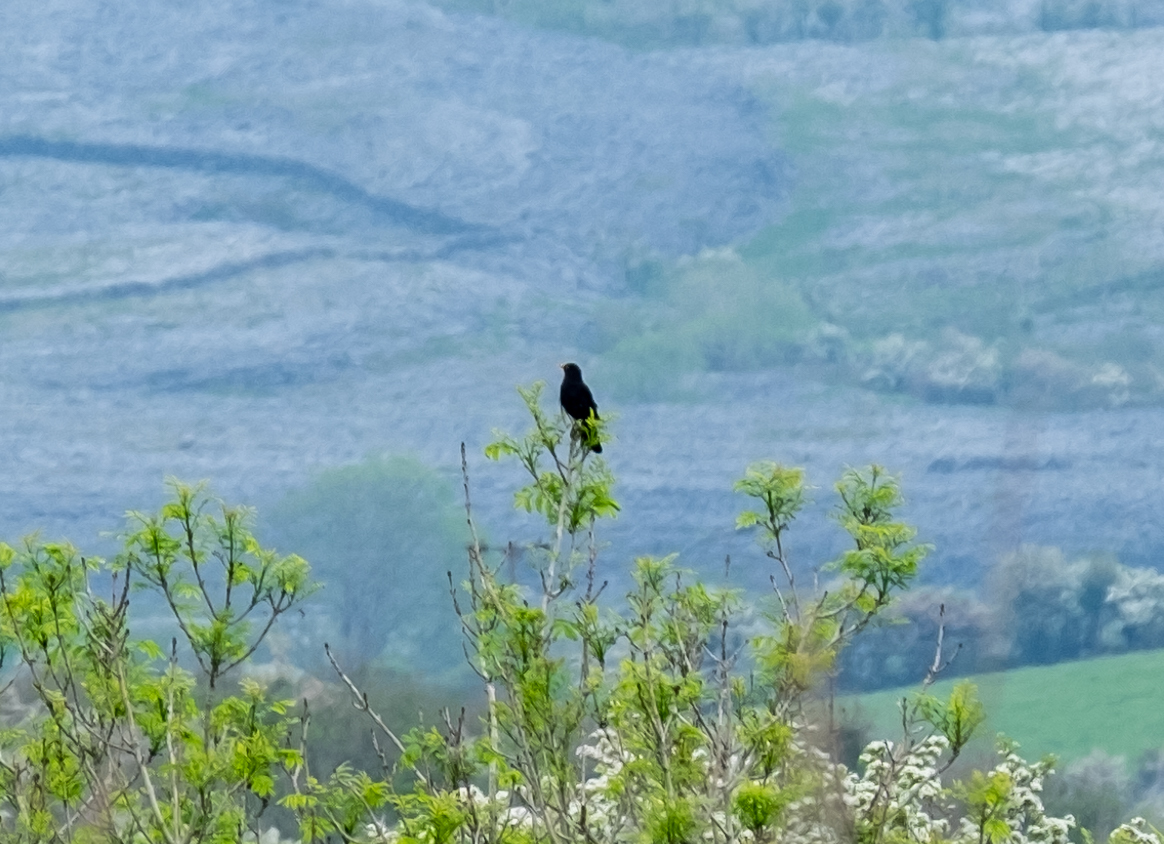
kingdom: Animalia
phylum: Chordata
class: Aves
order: Passeriformes
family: Turdidae
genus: Turdus
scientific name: Turdus merula
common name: Common blackbird
